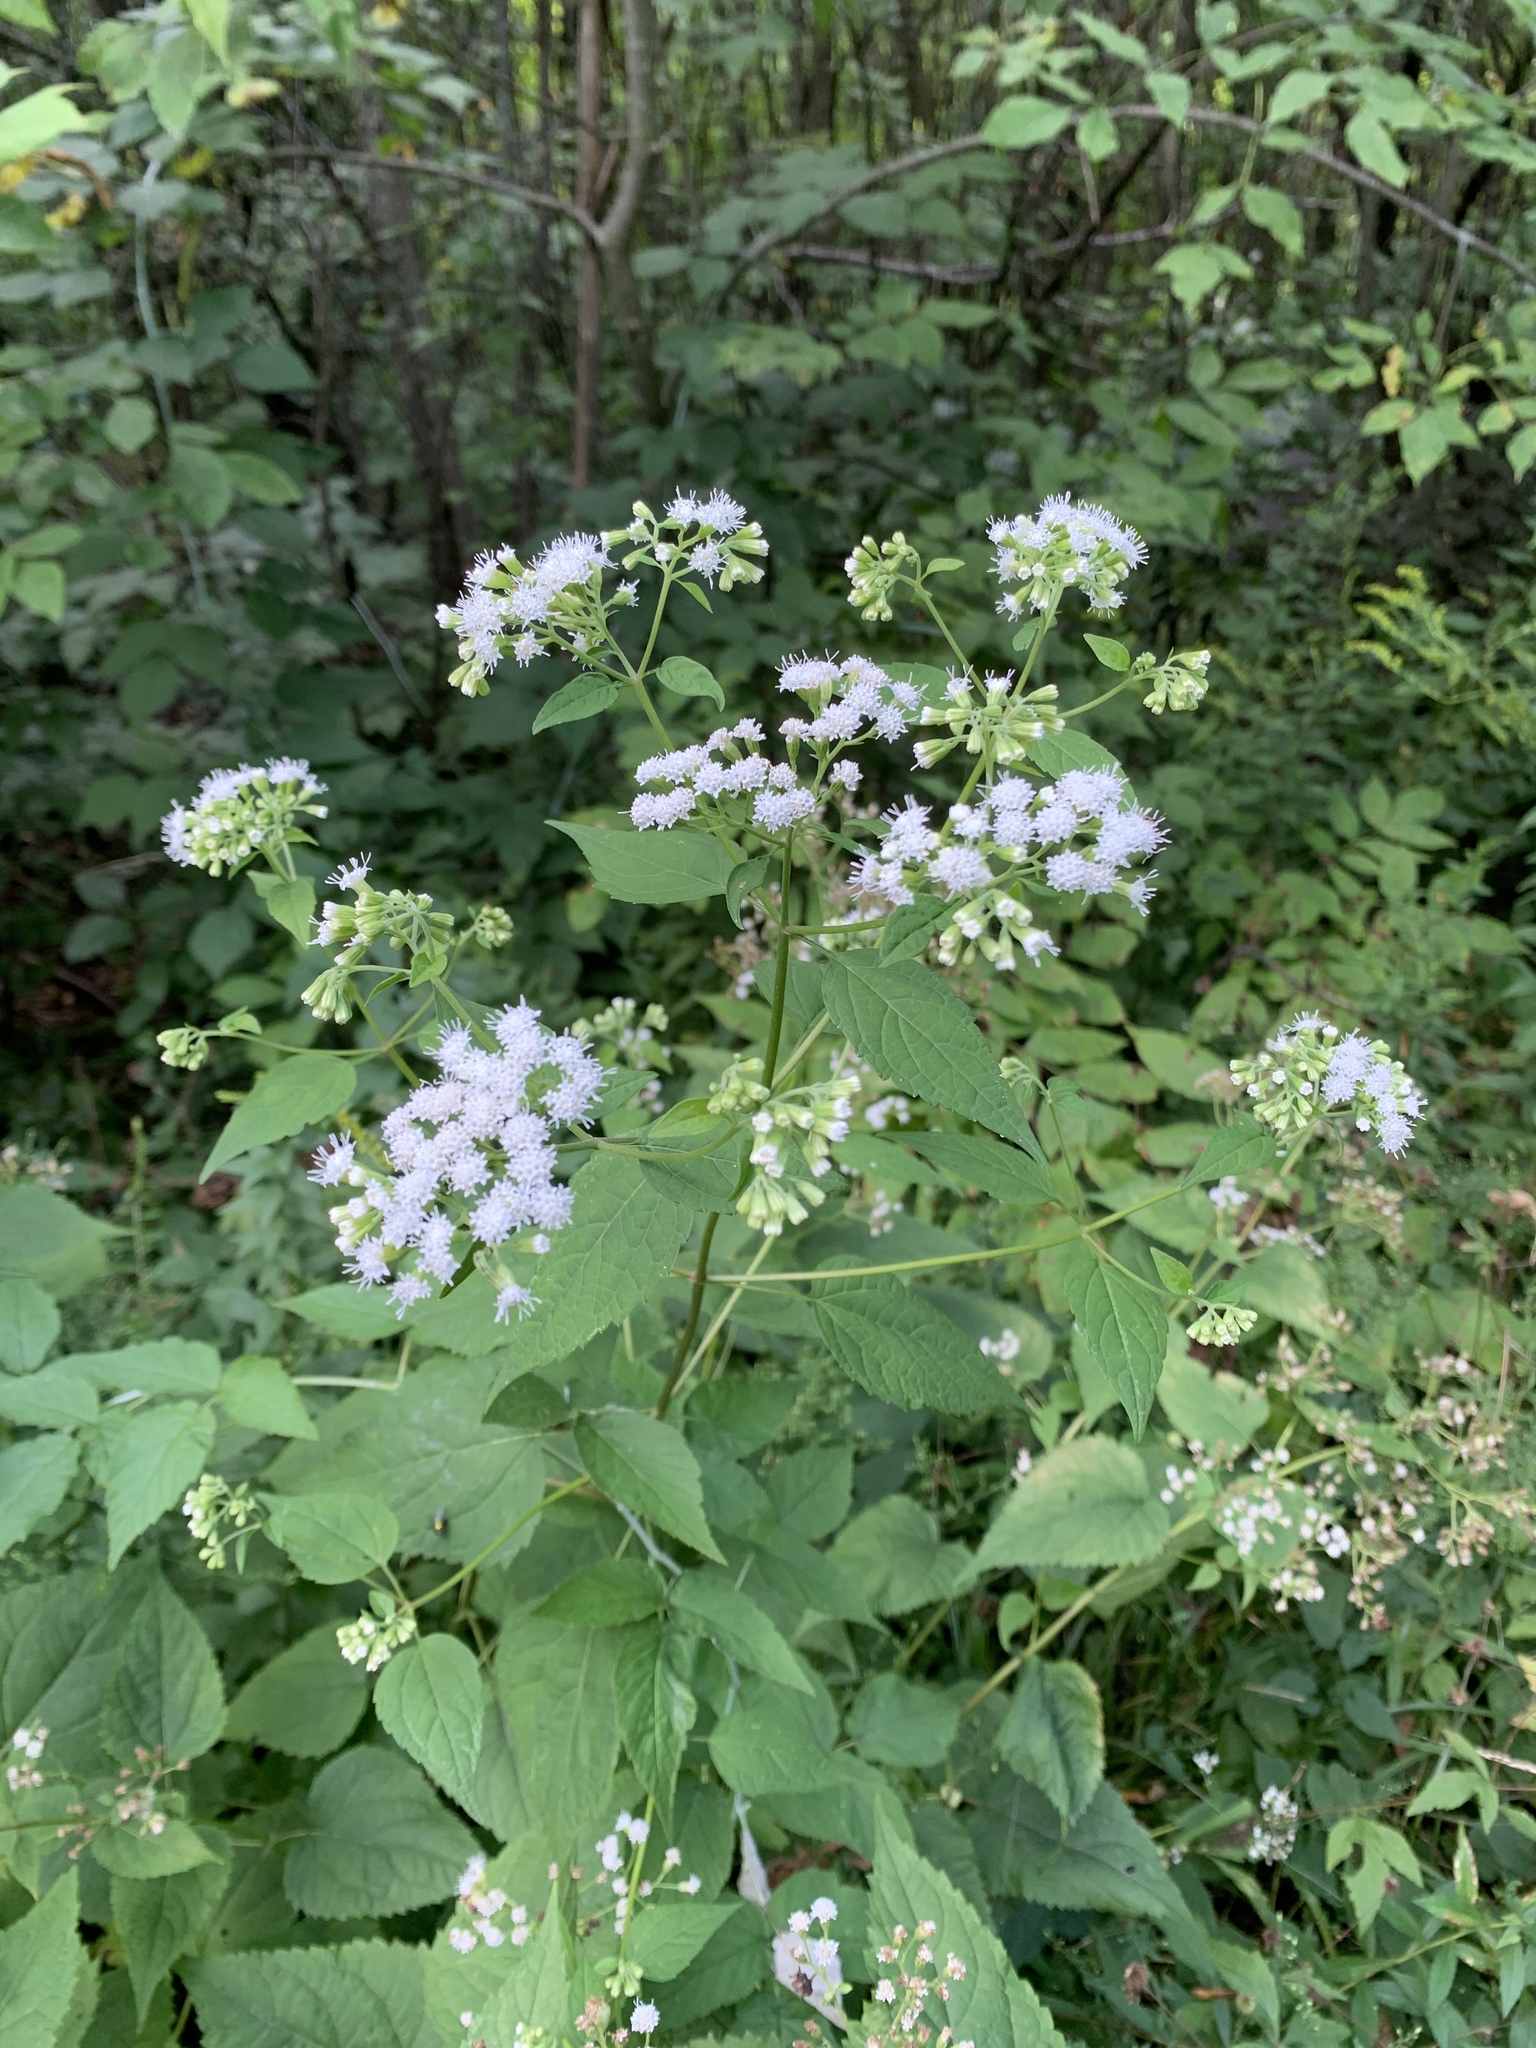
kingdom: Plantae
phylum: Tracheophyta
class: Magnoliopsida
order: Asterales
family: Asteraceae
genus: Ageratina
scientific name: Ageratina altissima
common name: White snakeroot
